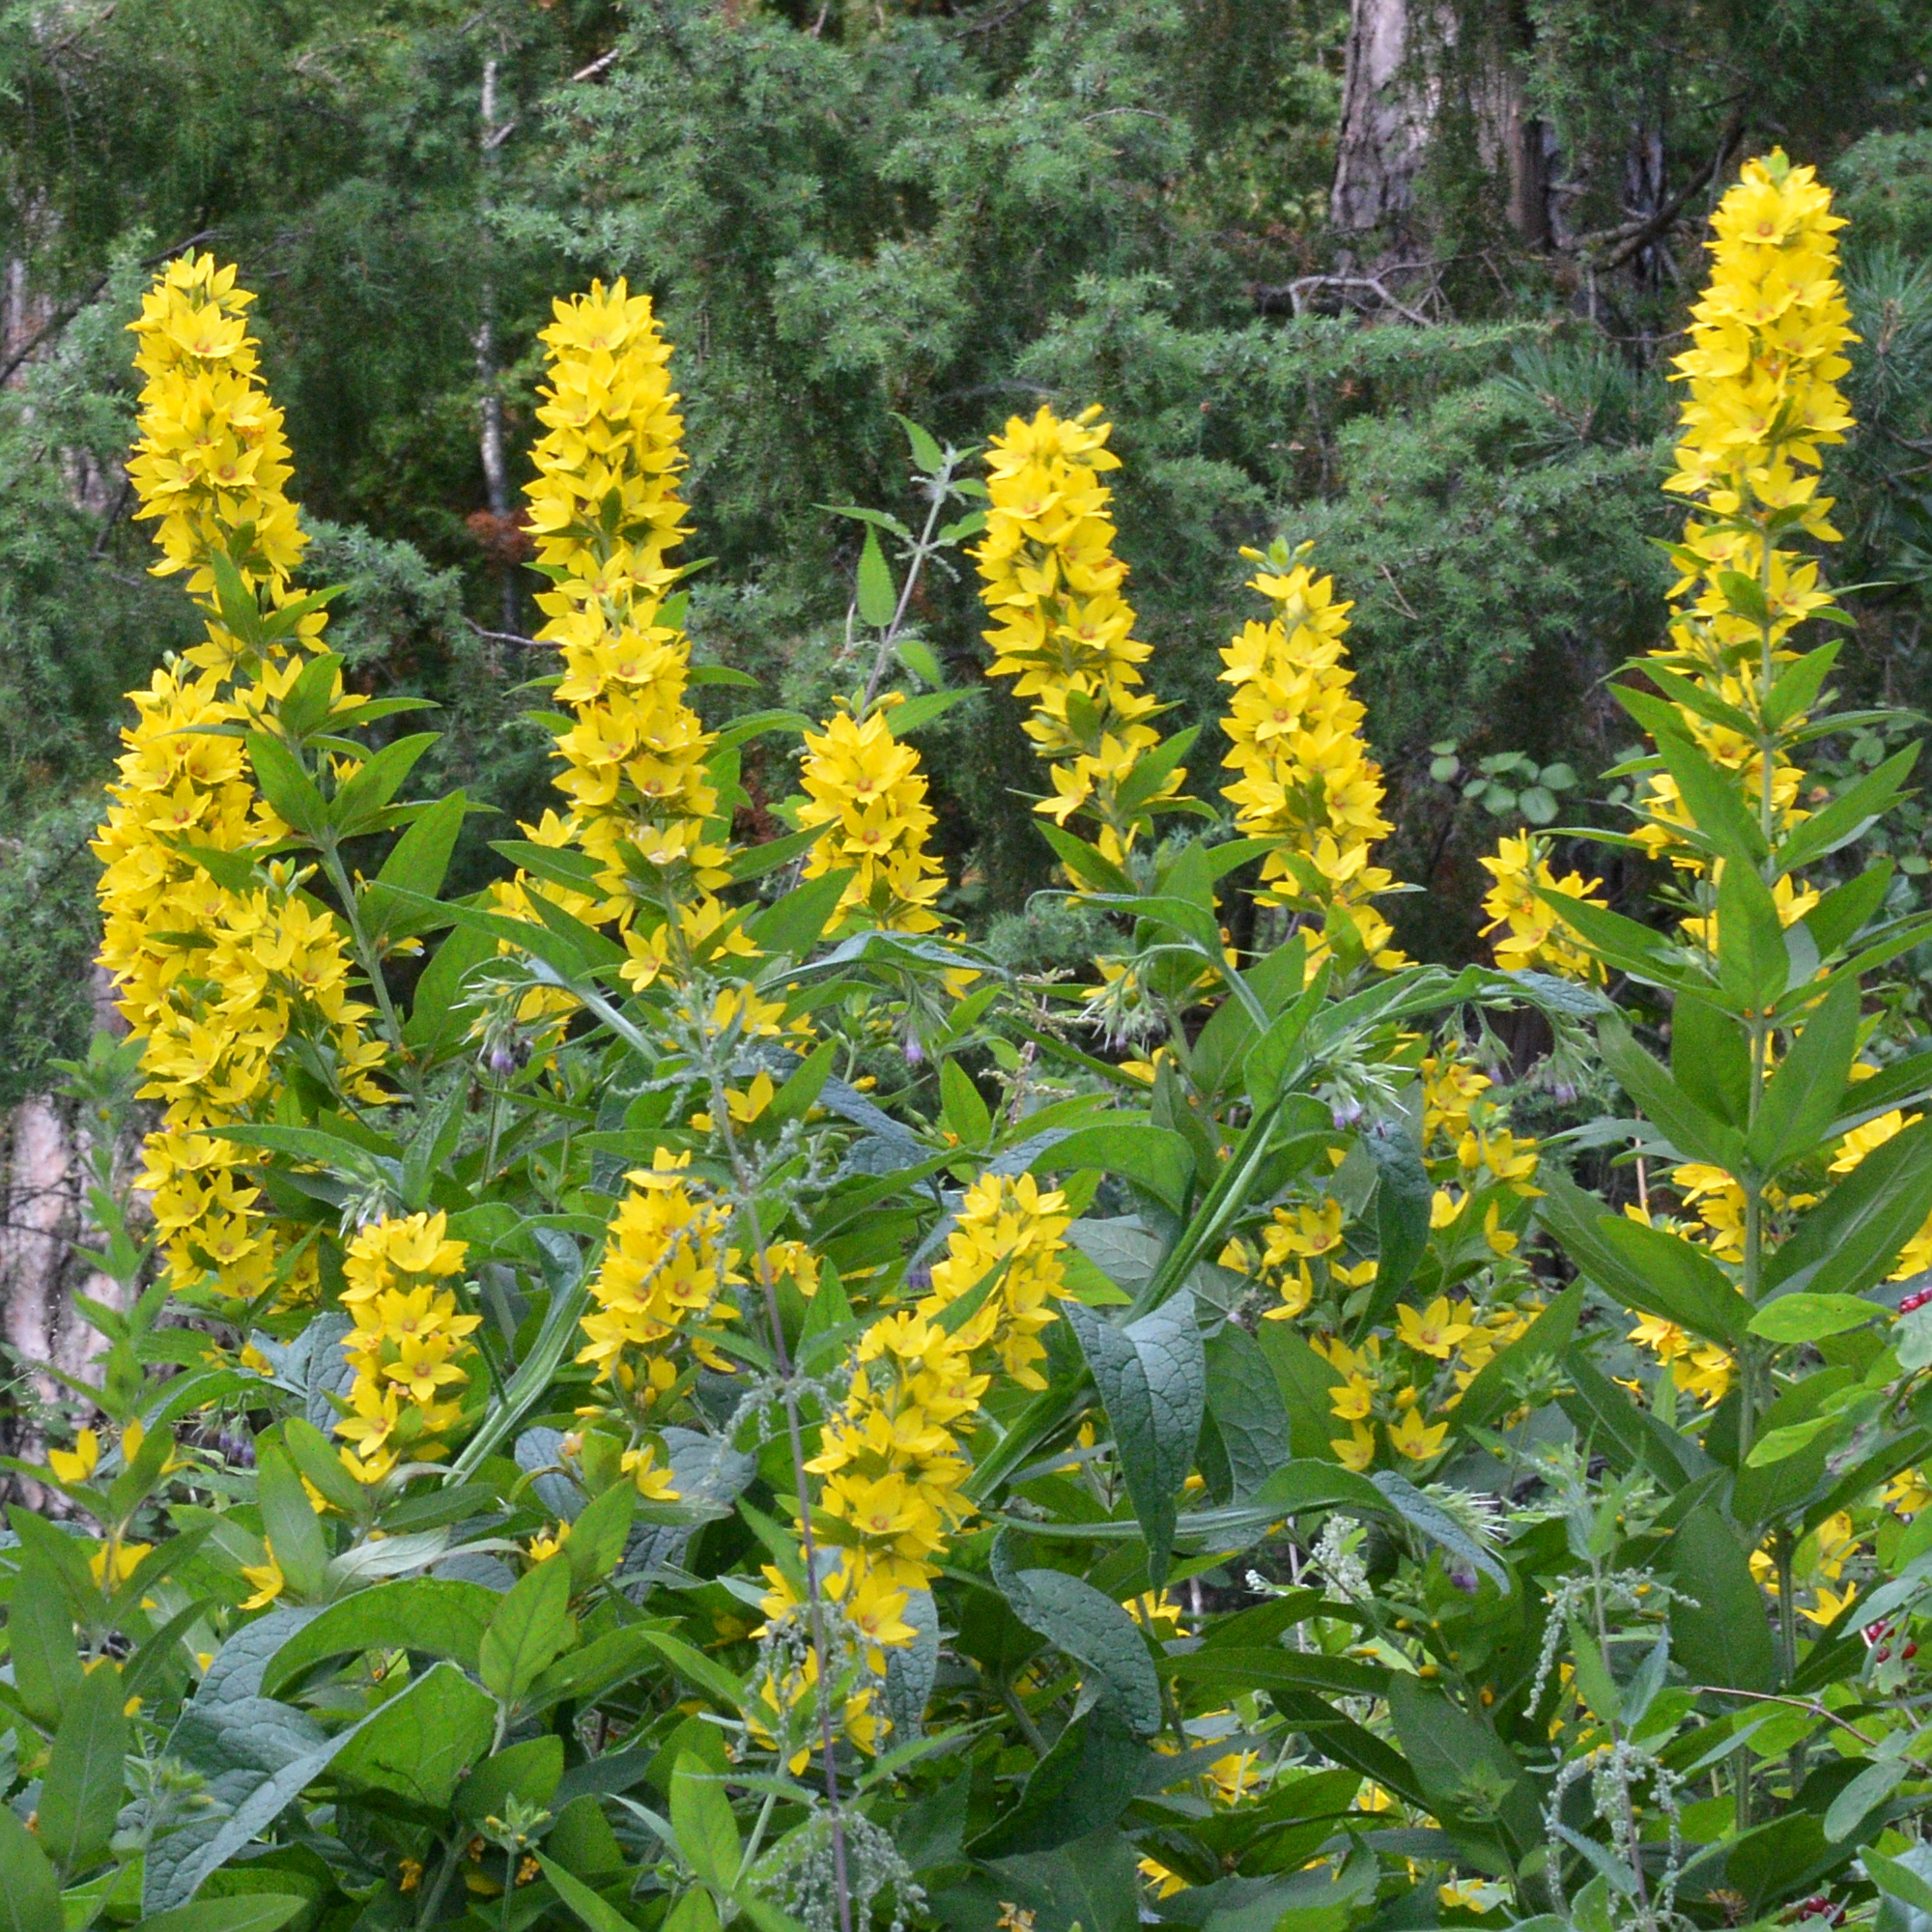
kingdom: Plantae
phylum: Tracheophyta
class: Magnoliopsida
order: Ericales
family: Primulaceae
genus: Lysimachia
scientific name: Lysimachia punctata
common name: Dotted loosestrife
